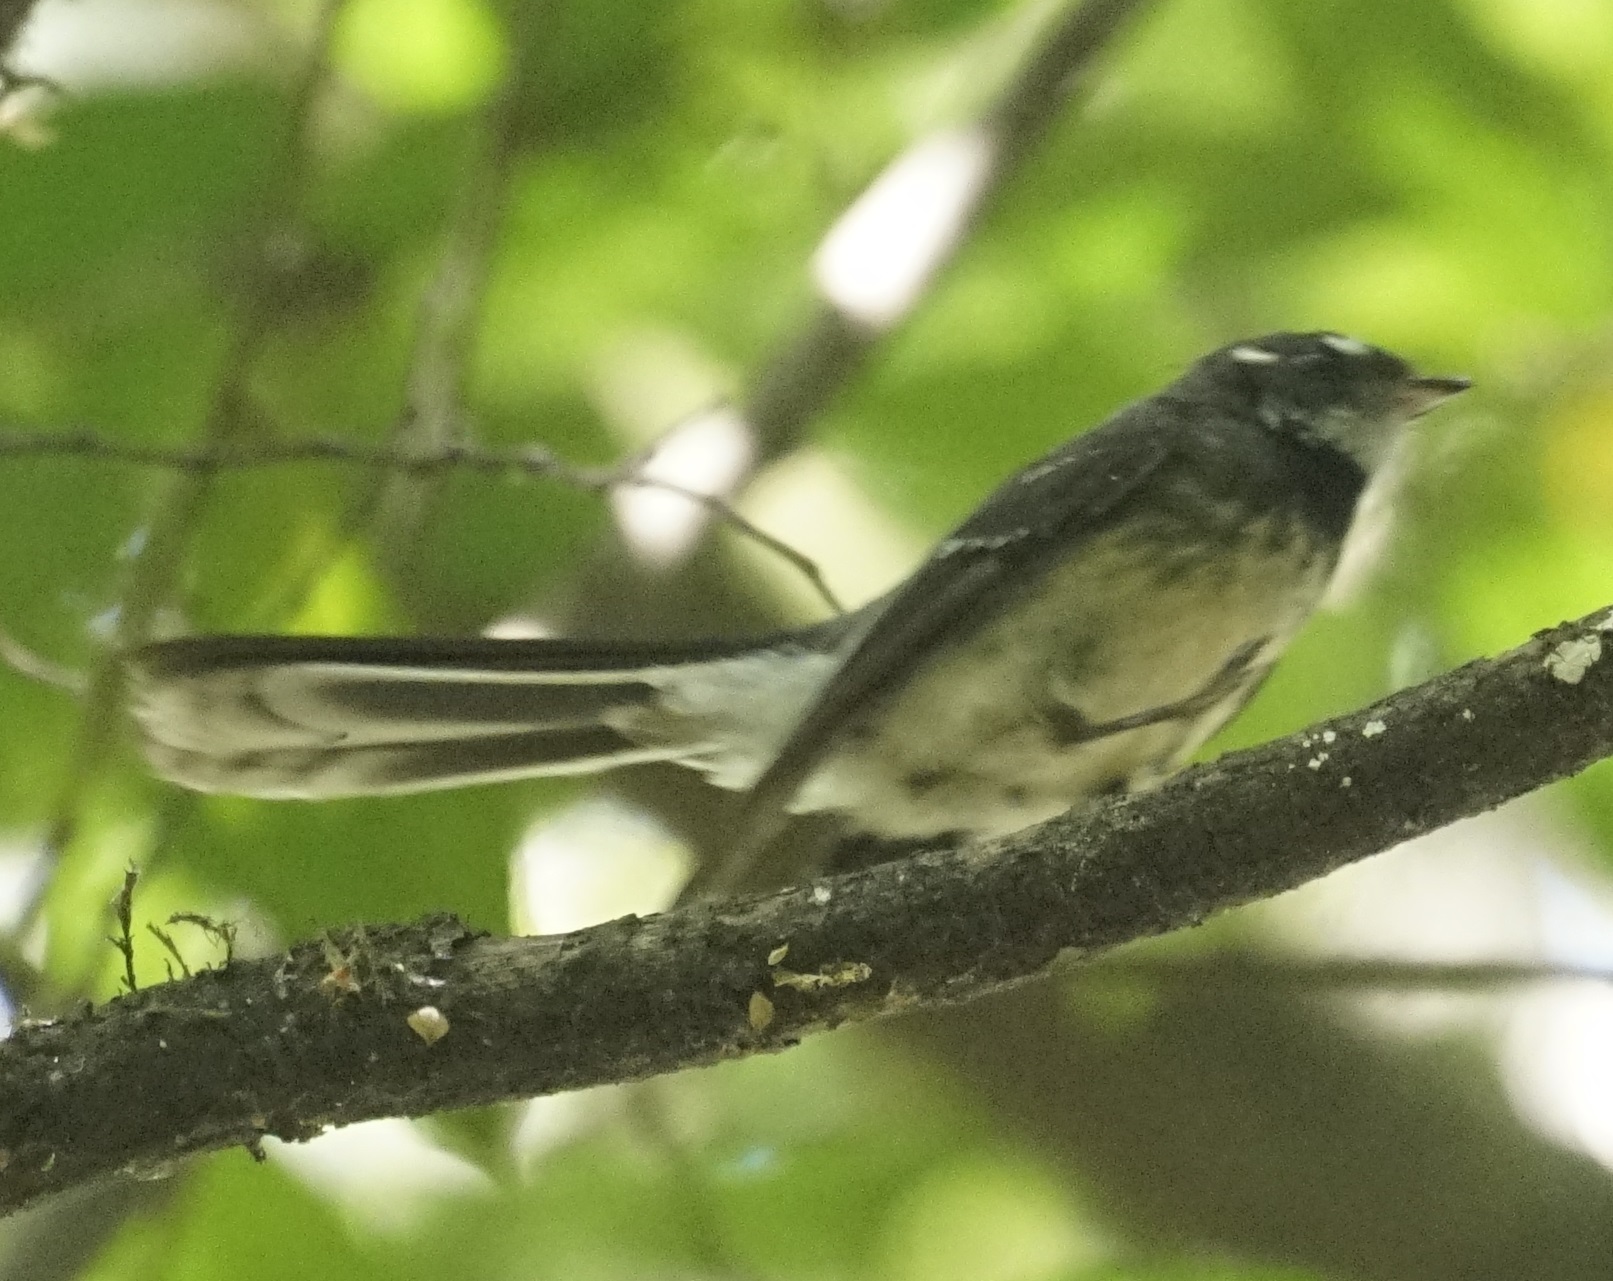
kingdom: Animalia
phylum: Chordata
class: Aves
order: Passeriformes
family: Rhipiduridae
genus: Rhipidura
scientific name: Rhipidura albiscapa
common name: Grey fantail
